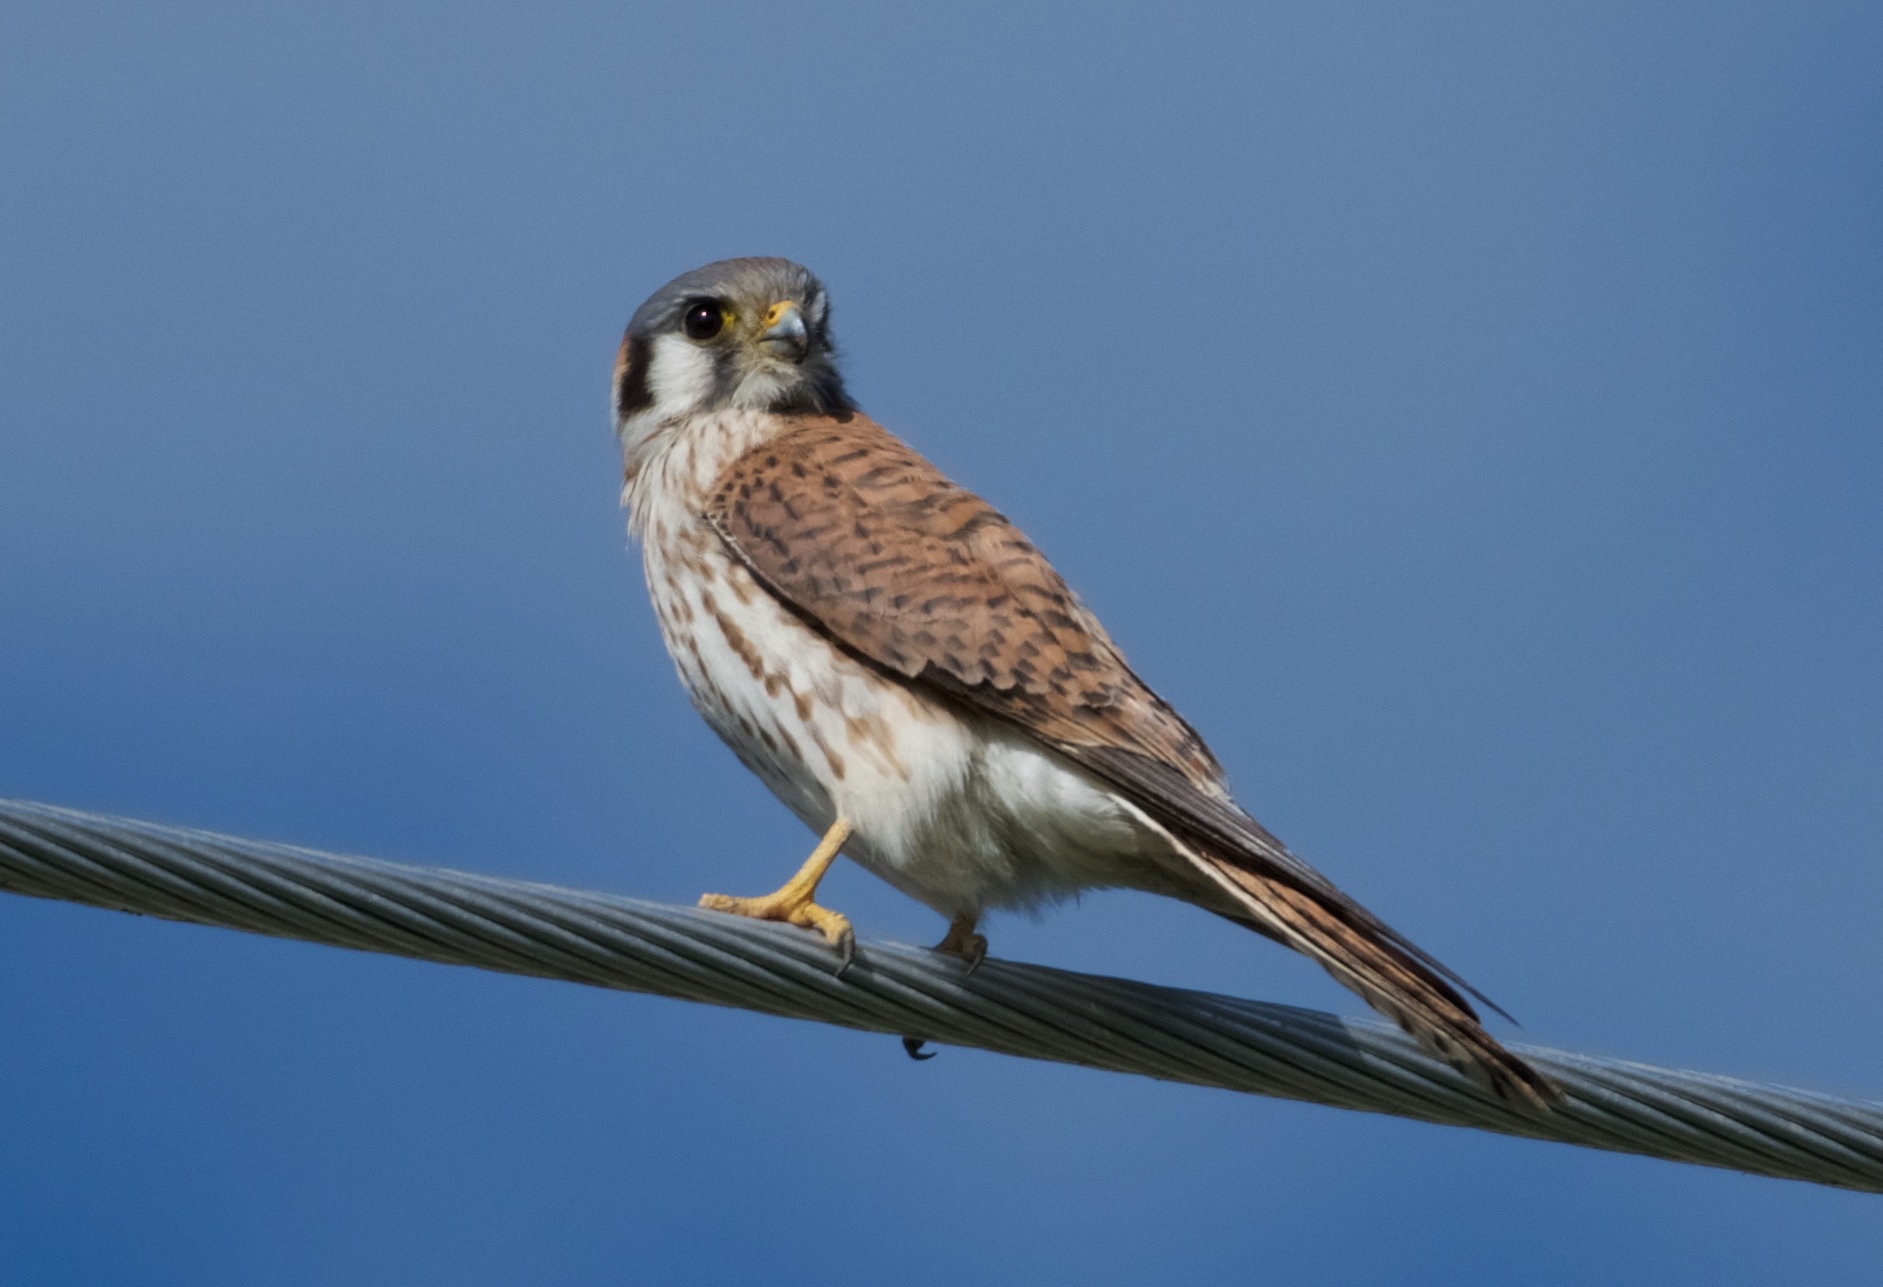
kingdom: Animalia
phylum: Chordata
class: Aves
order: Falconiformes
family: Falconidae
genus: Falco
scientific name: Falco sparverius
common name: American kestrel
